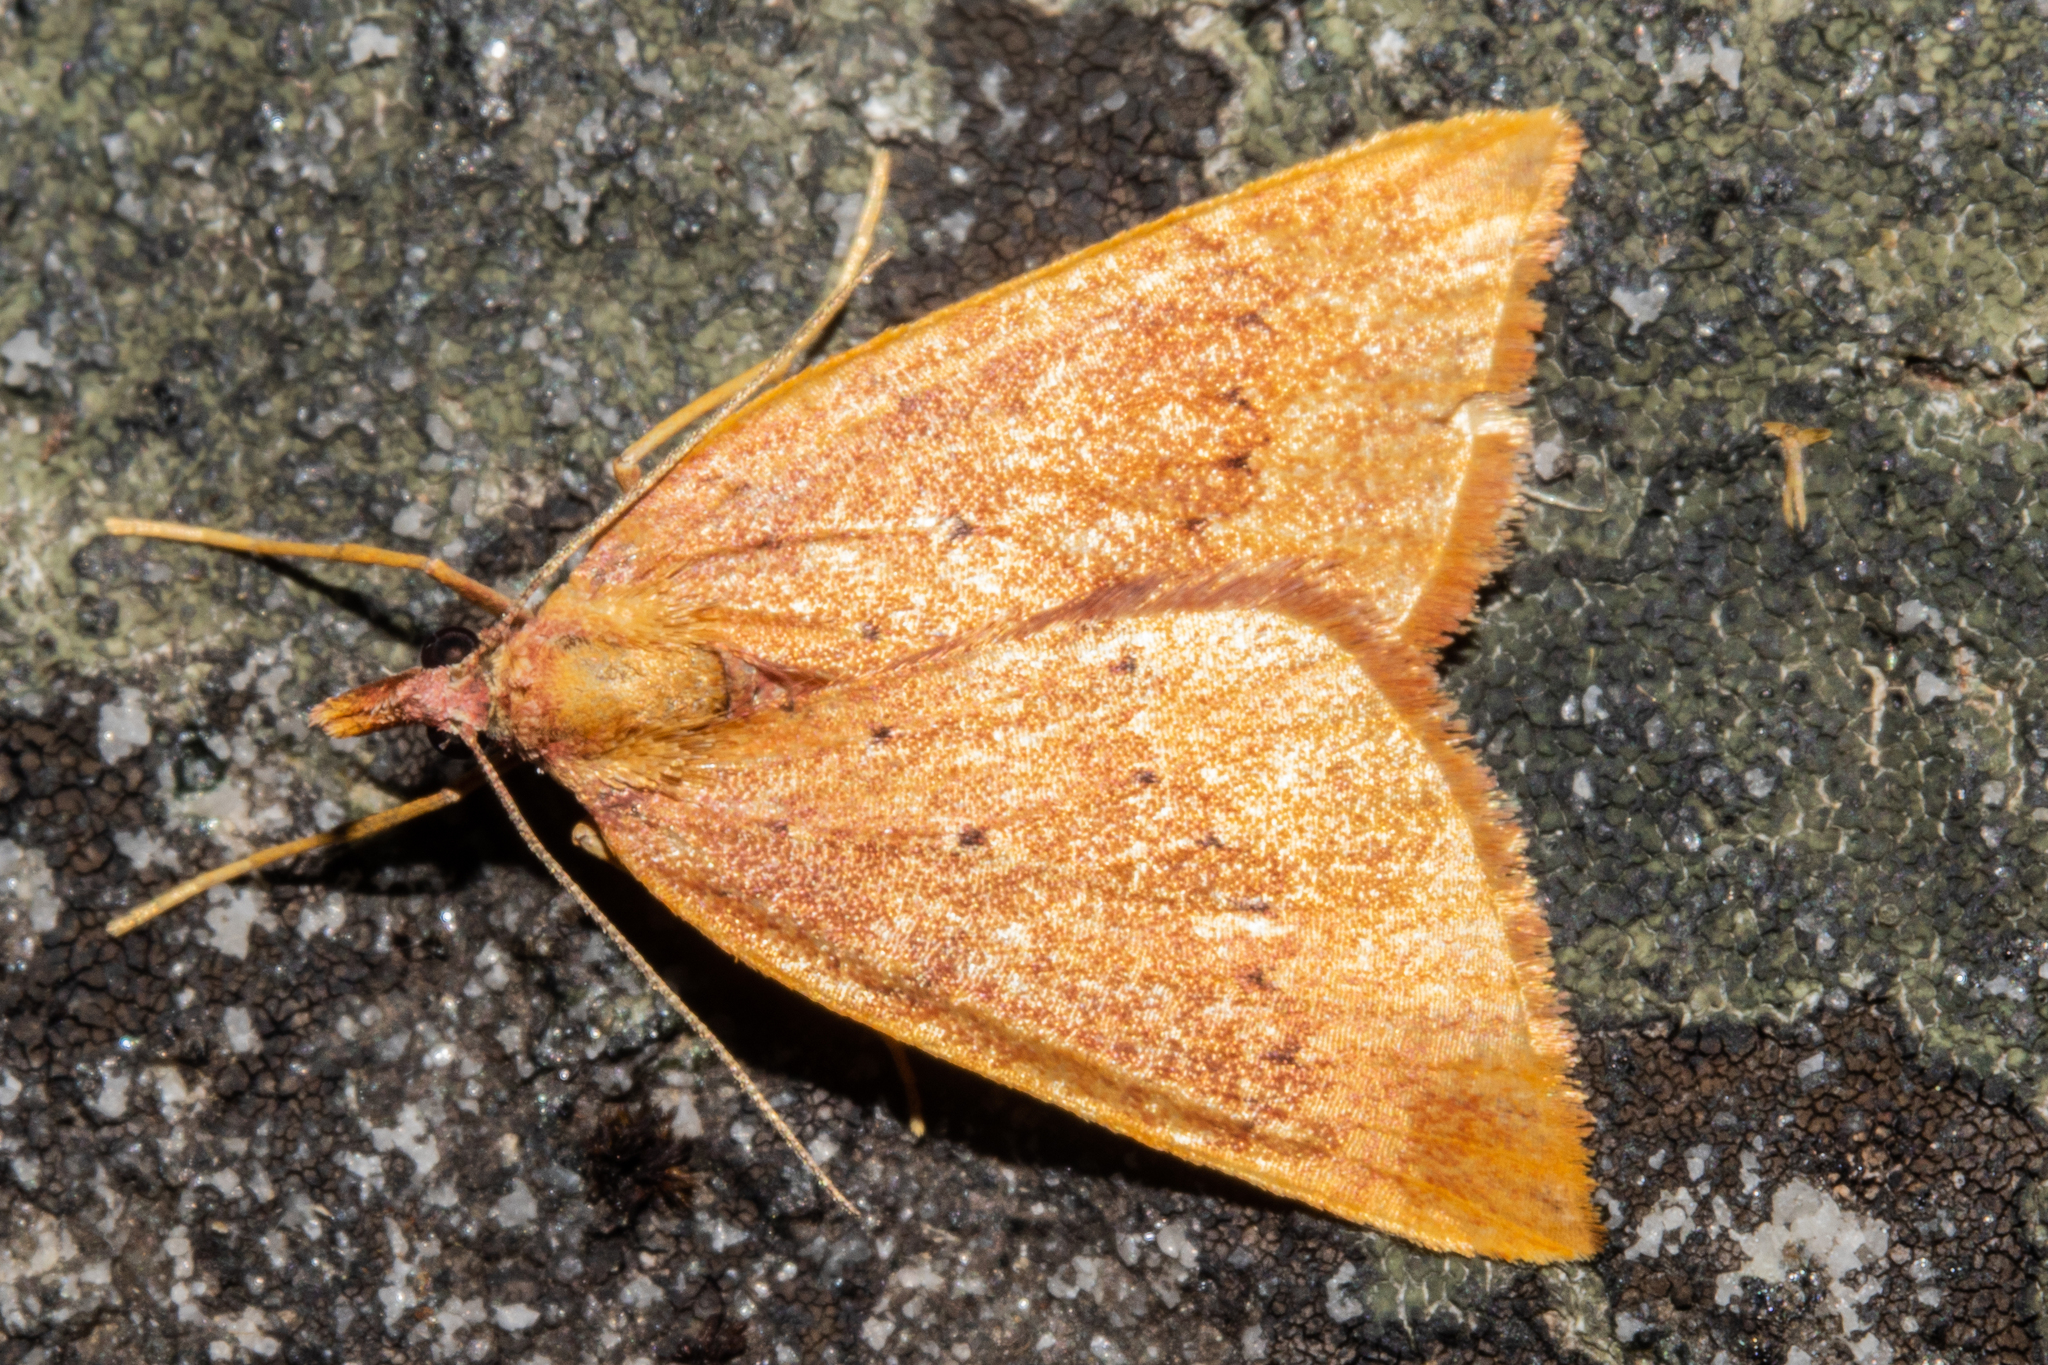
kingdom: Animalia
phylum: Arthropoda
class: Insecta
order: Lepidoptera
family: Geometridae
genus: Xanthorhoe
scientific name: Xanthorhoe occulta
